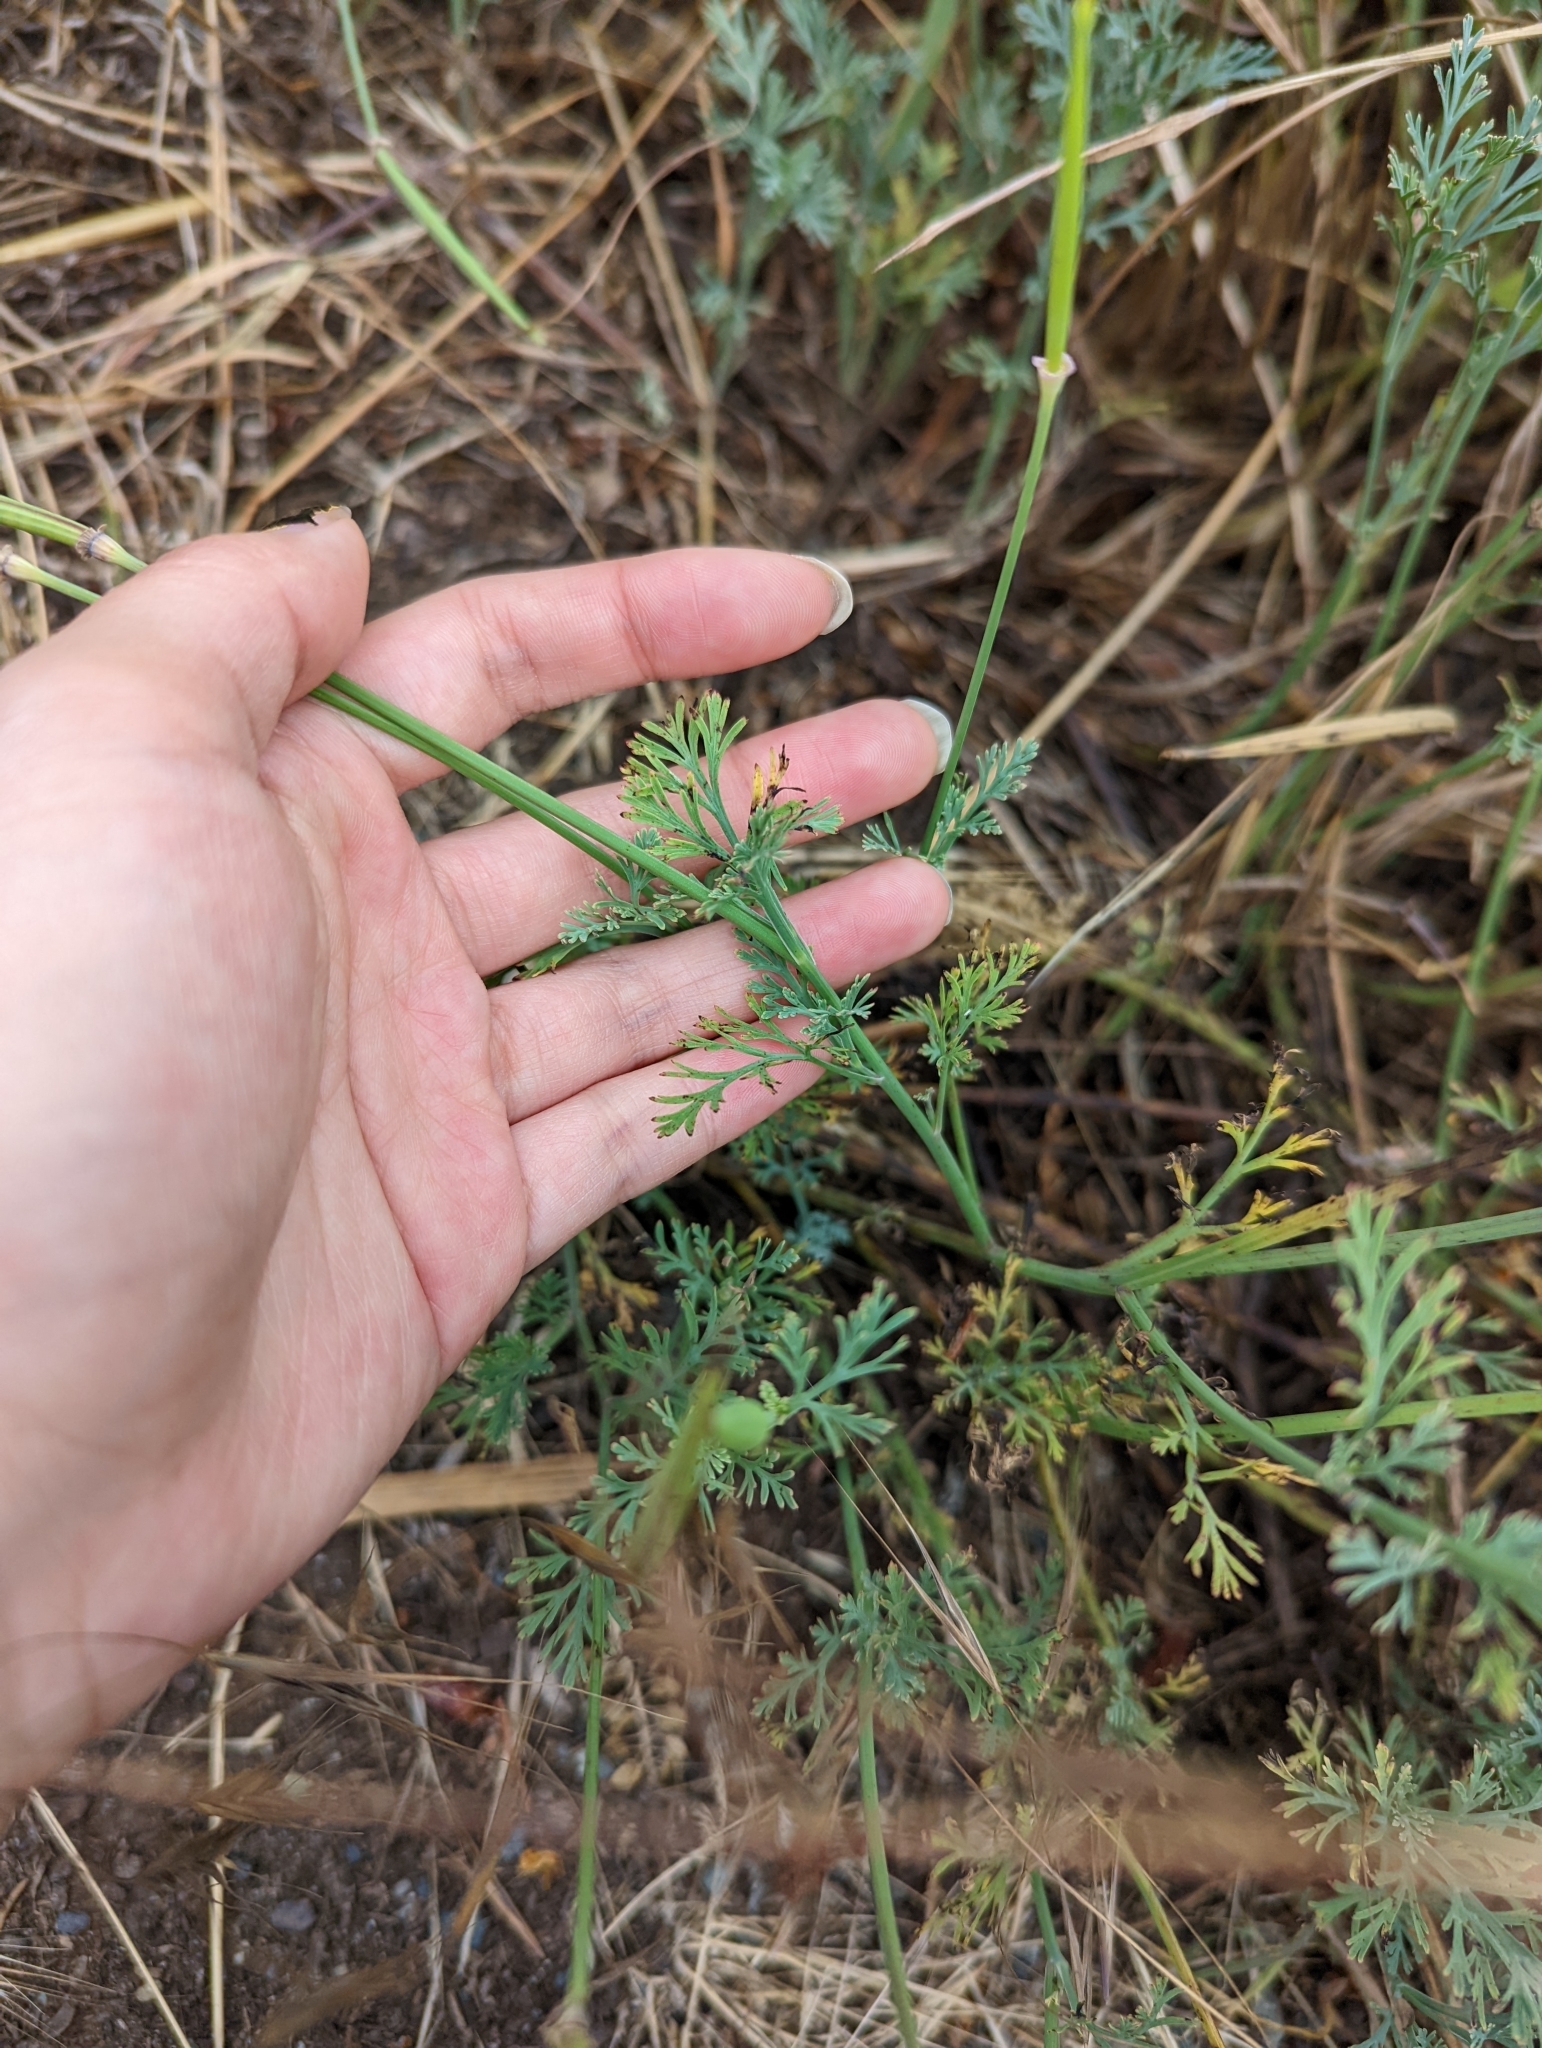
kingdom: Plantae
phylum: Tracheophyta
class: Magnoliopsida
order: Ranunculales
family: Papaveraceae
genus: Eschscholzia
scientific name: Eschscholzia californica
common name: California poppy
